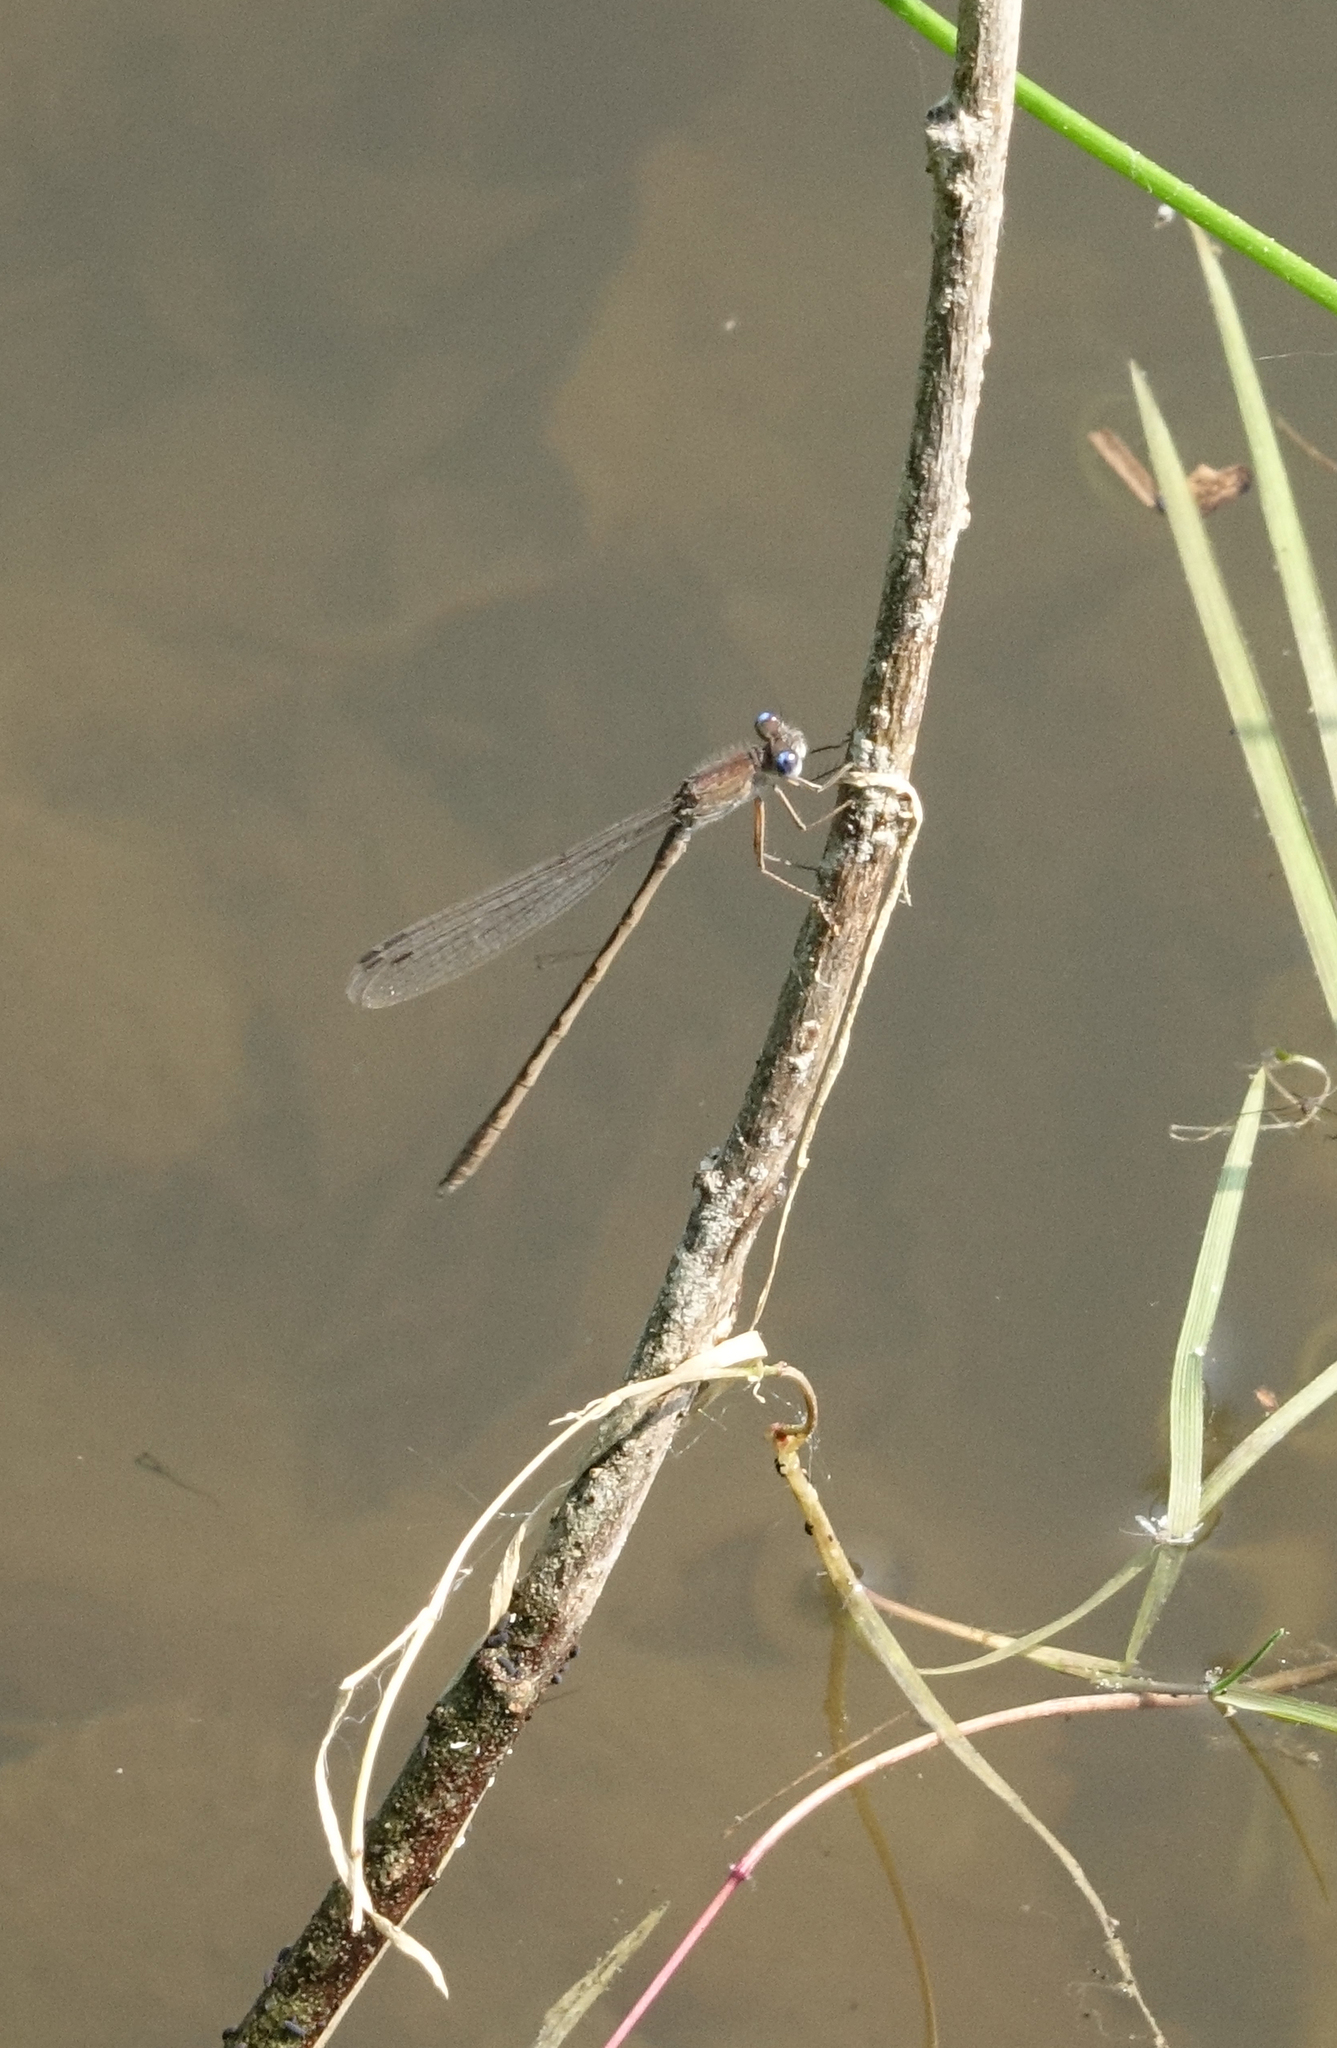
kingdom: Animalia
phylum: Arthropoda
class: Insecta
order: Odonata
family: Lestidae
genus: Sympecma
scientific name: Sympecma paedisca
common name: Siberian winter damsel
